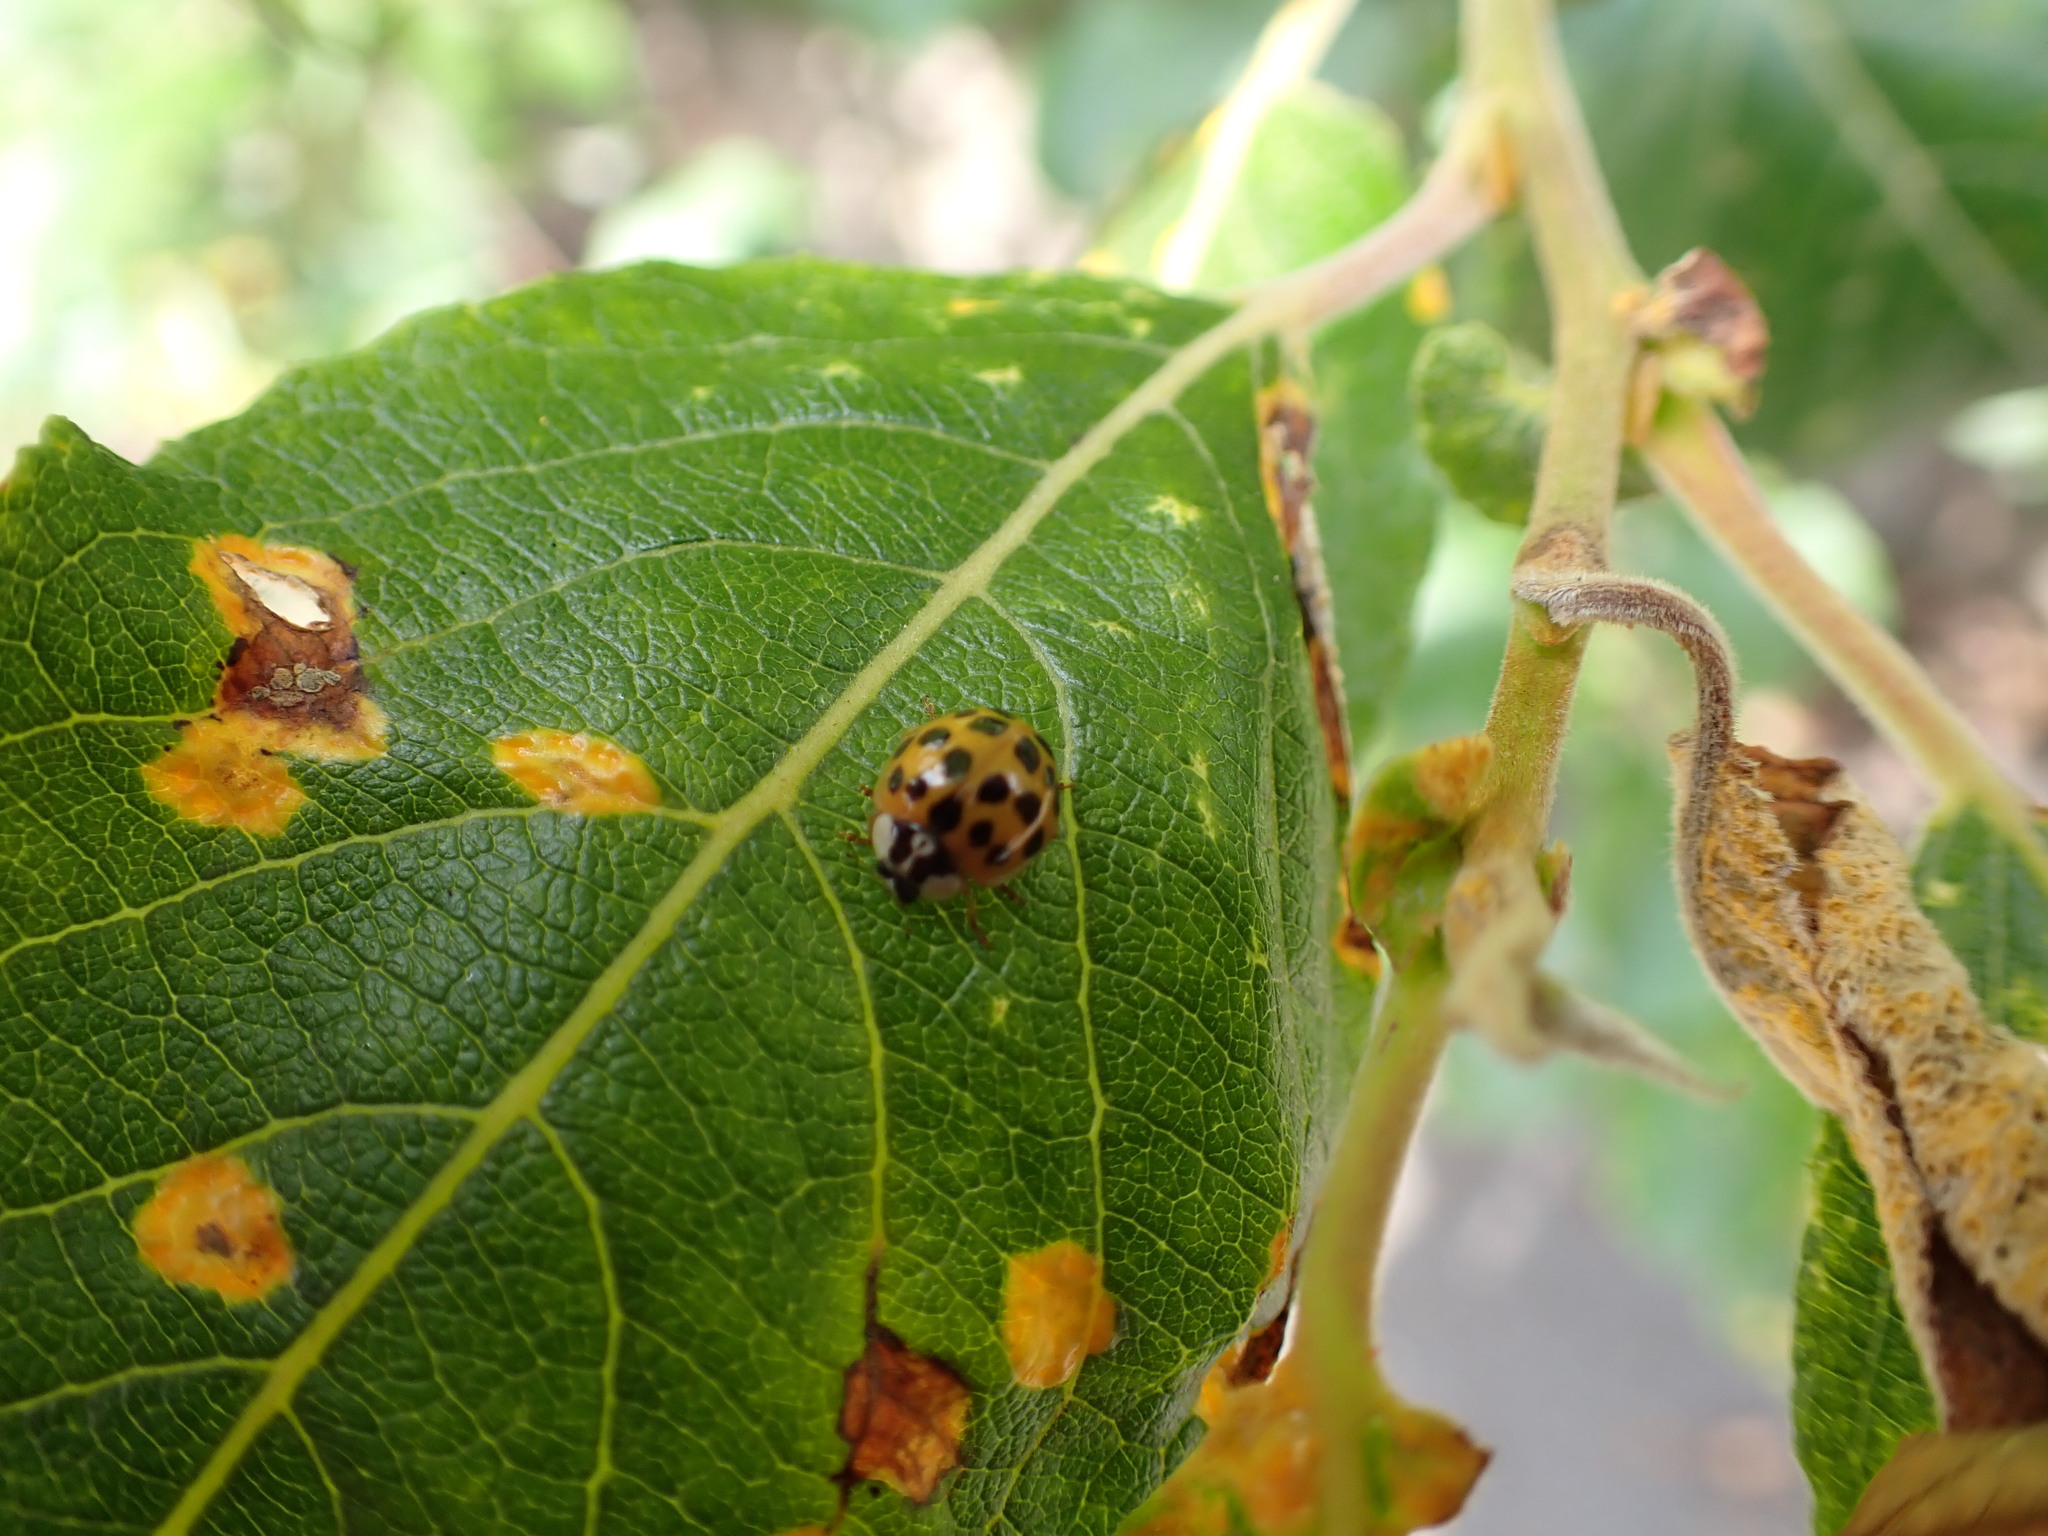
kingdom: Animalia
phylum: Arthropoda
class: Insecta
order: Coleoptera
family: Coccinellidae
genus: Harmonia
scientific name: Harmonia axyridis
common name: Harlequin ladybird
